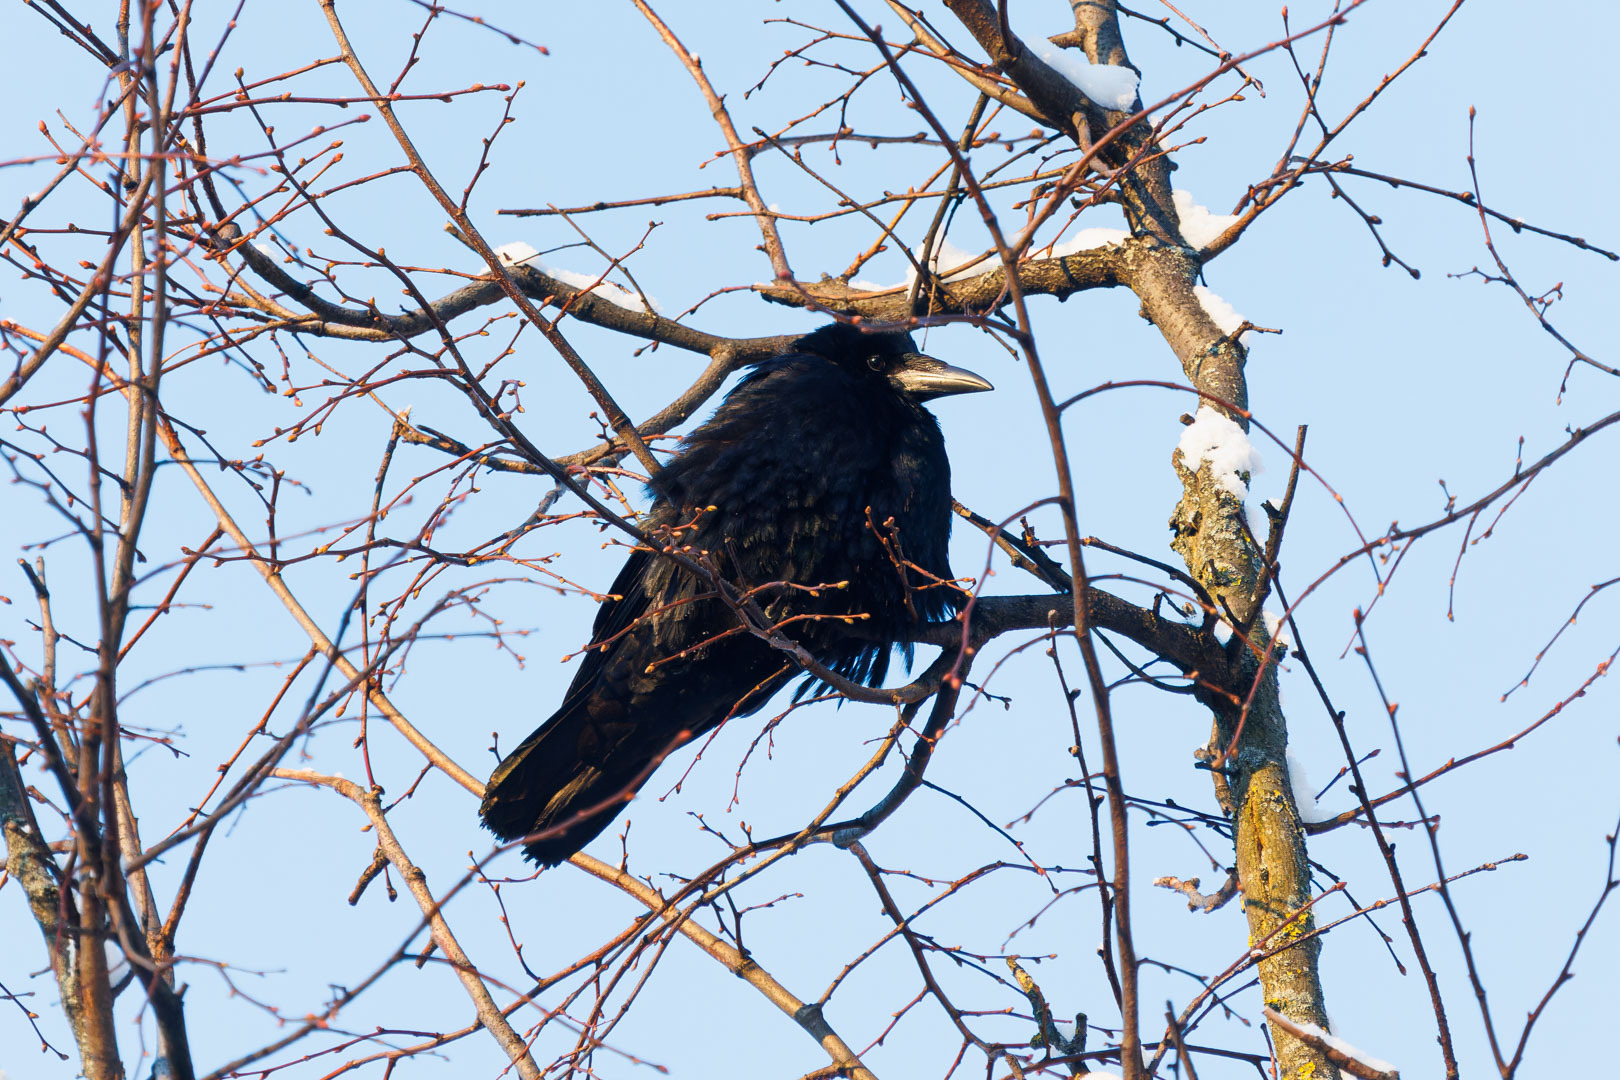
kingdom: Animalia
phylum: Chordata
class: Aves
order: Passeriformes
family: Corvidae
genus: Corvus
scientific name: Corvus frugilegus
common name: Rook
